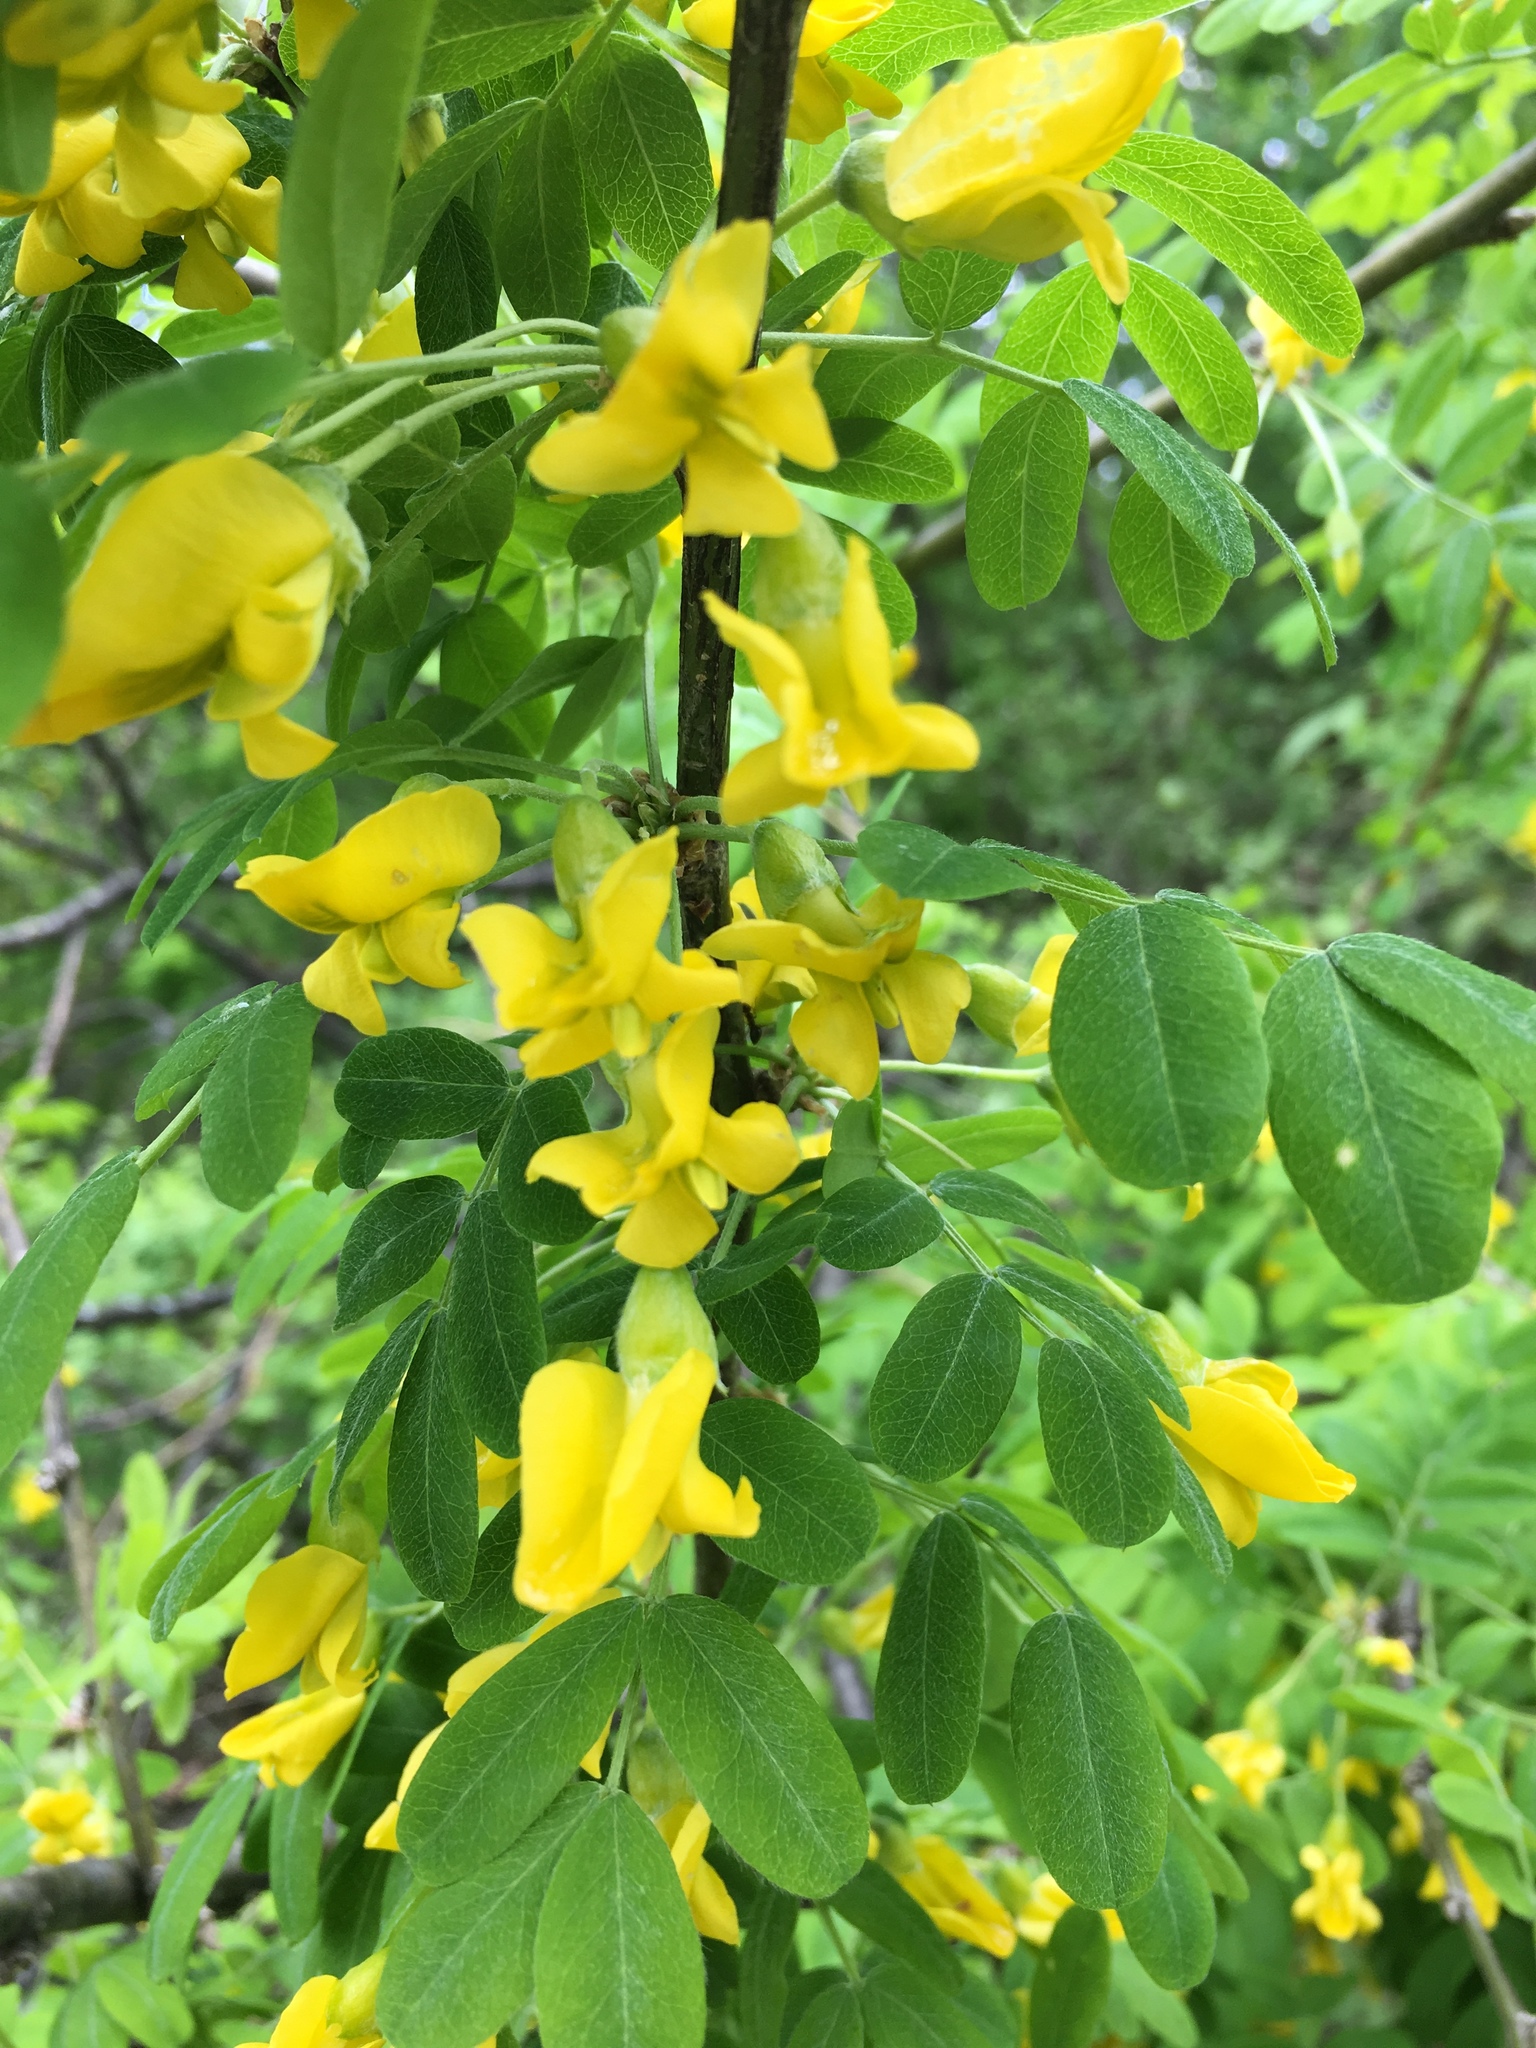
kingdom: Plantae
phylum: Tracheophyta
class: Magnoliopsida
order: Fabales
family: Fabaceae
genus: Caragana
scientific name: Caragana arborescens
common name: Siberian peashrub
